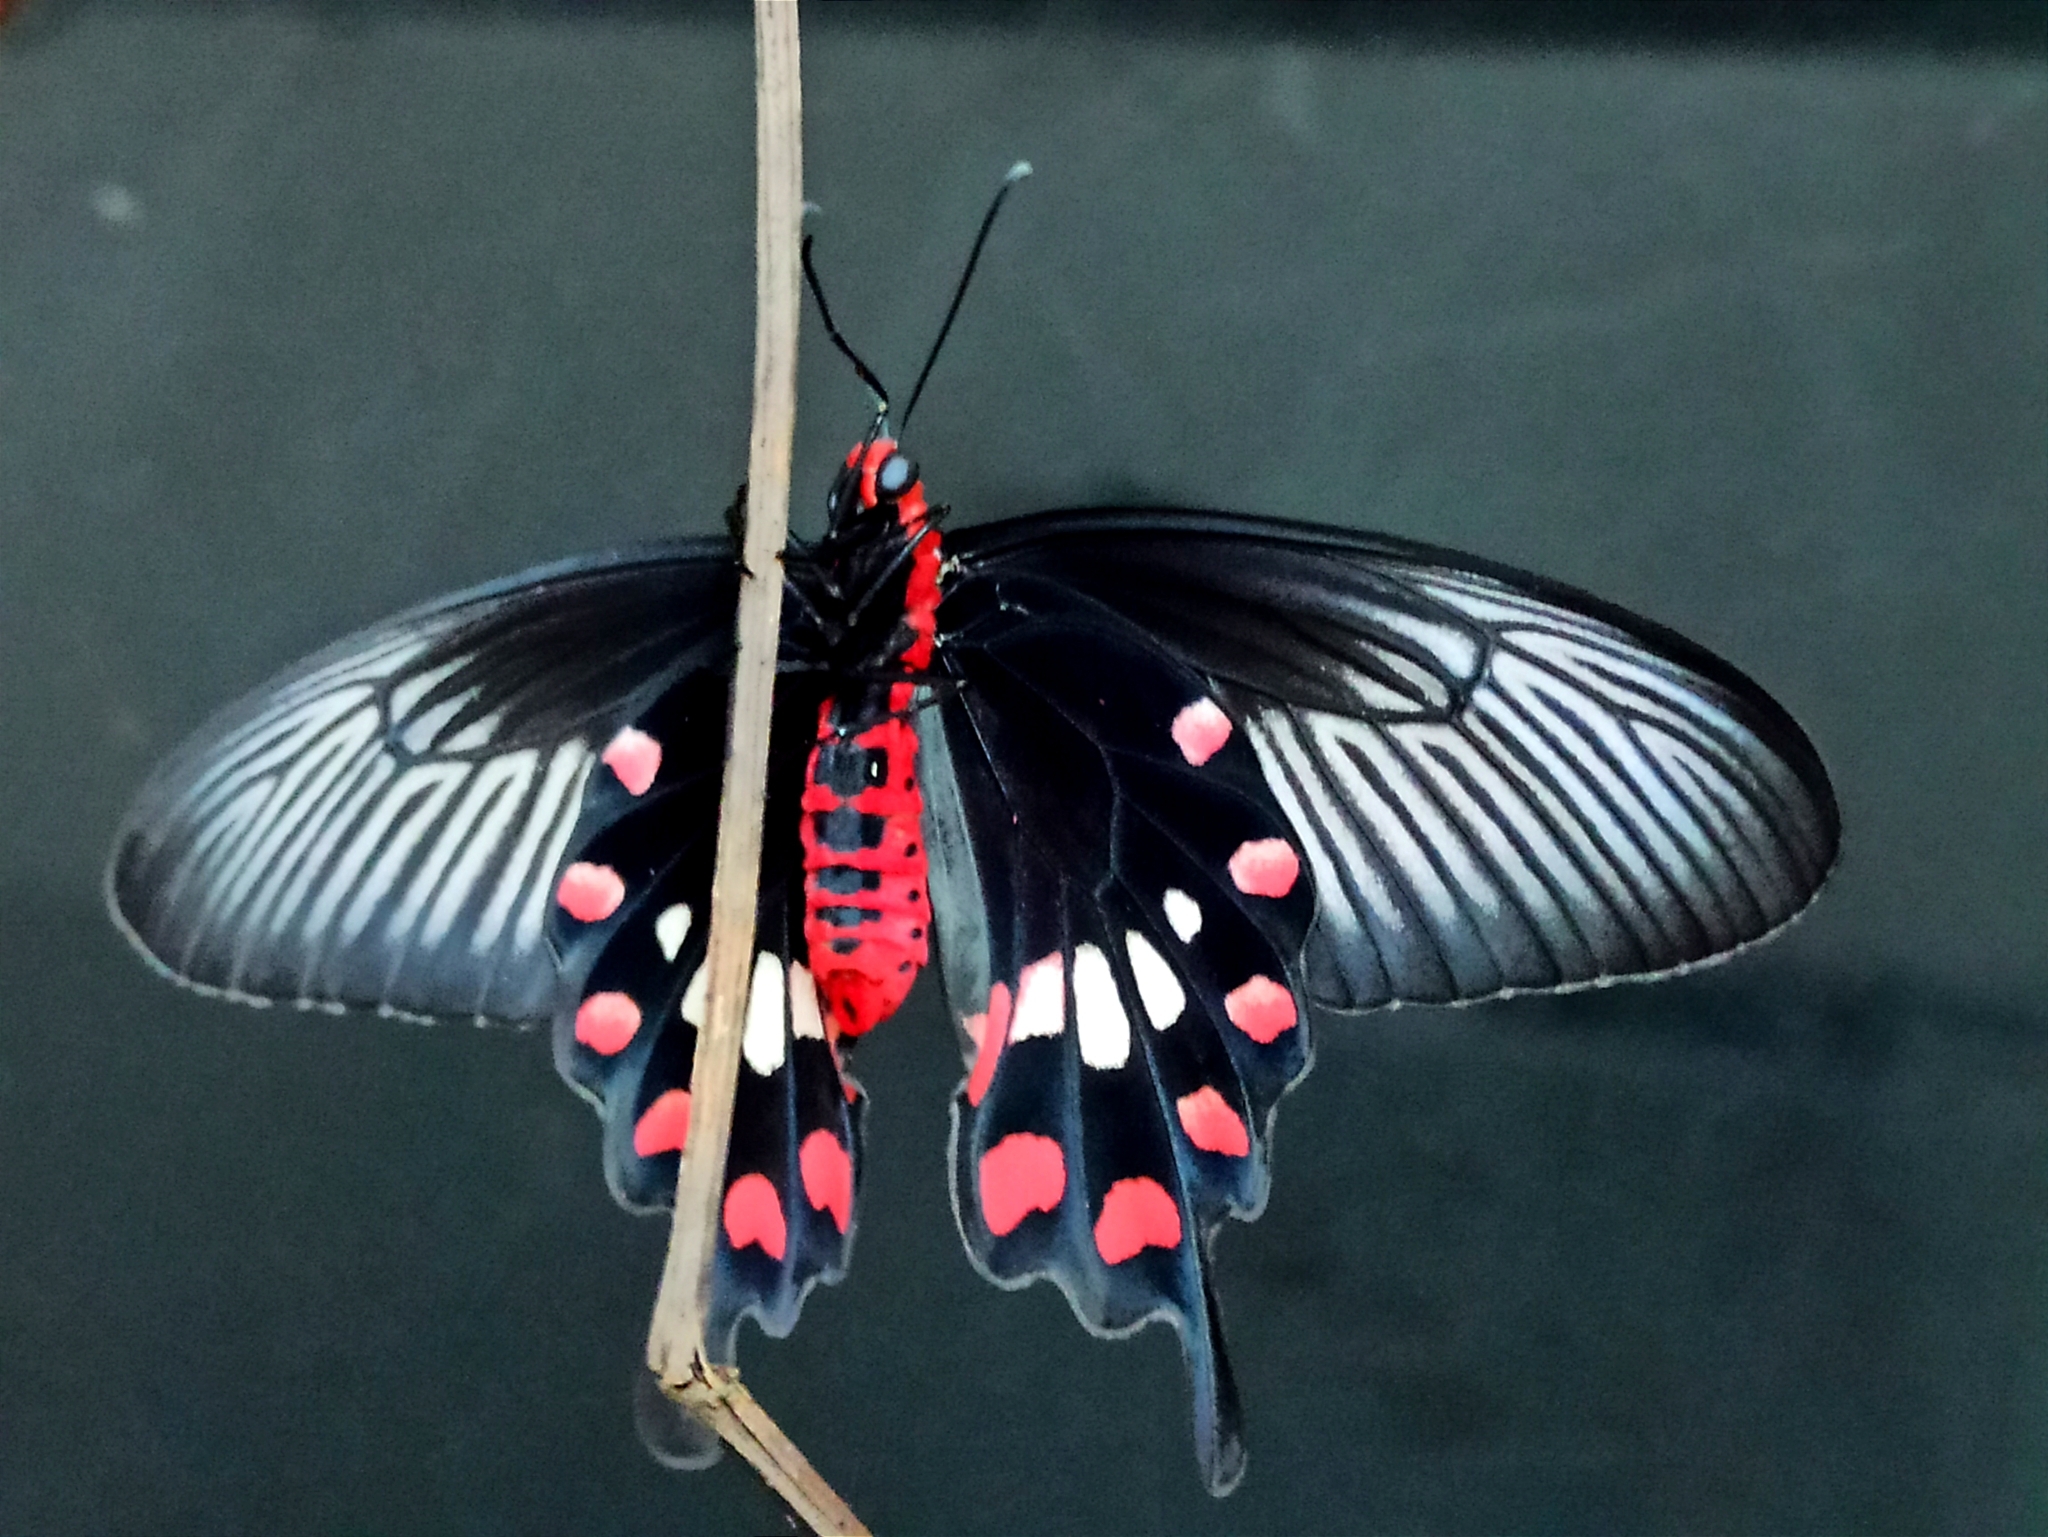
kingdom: Animalia
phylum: Arthropoda
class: Insecta
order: Lepidoptera
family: Papilionidae
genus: Pachliopta
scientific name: Pachliopta aristolochiae
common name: Common rose
